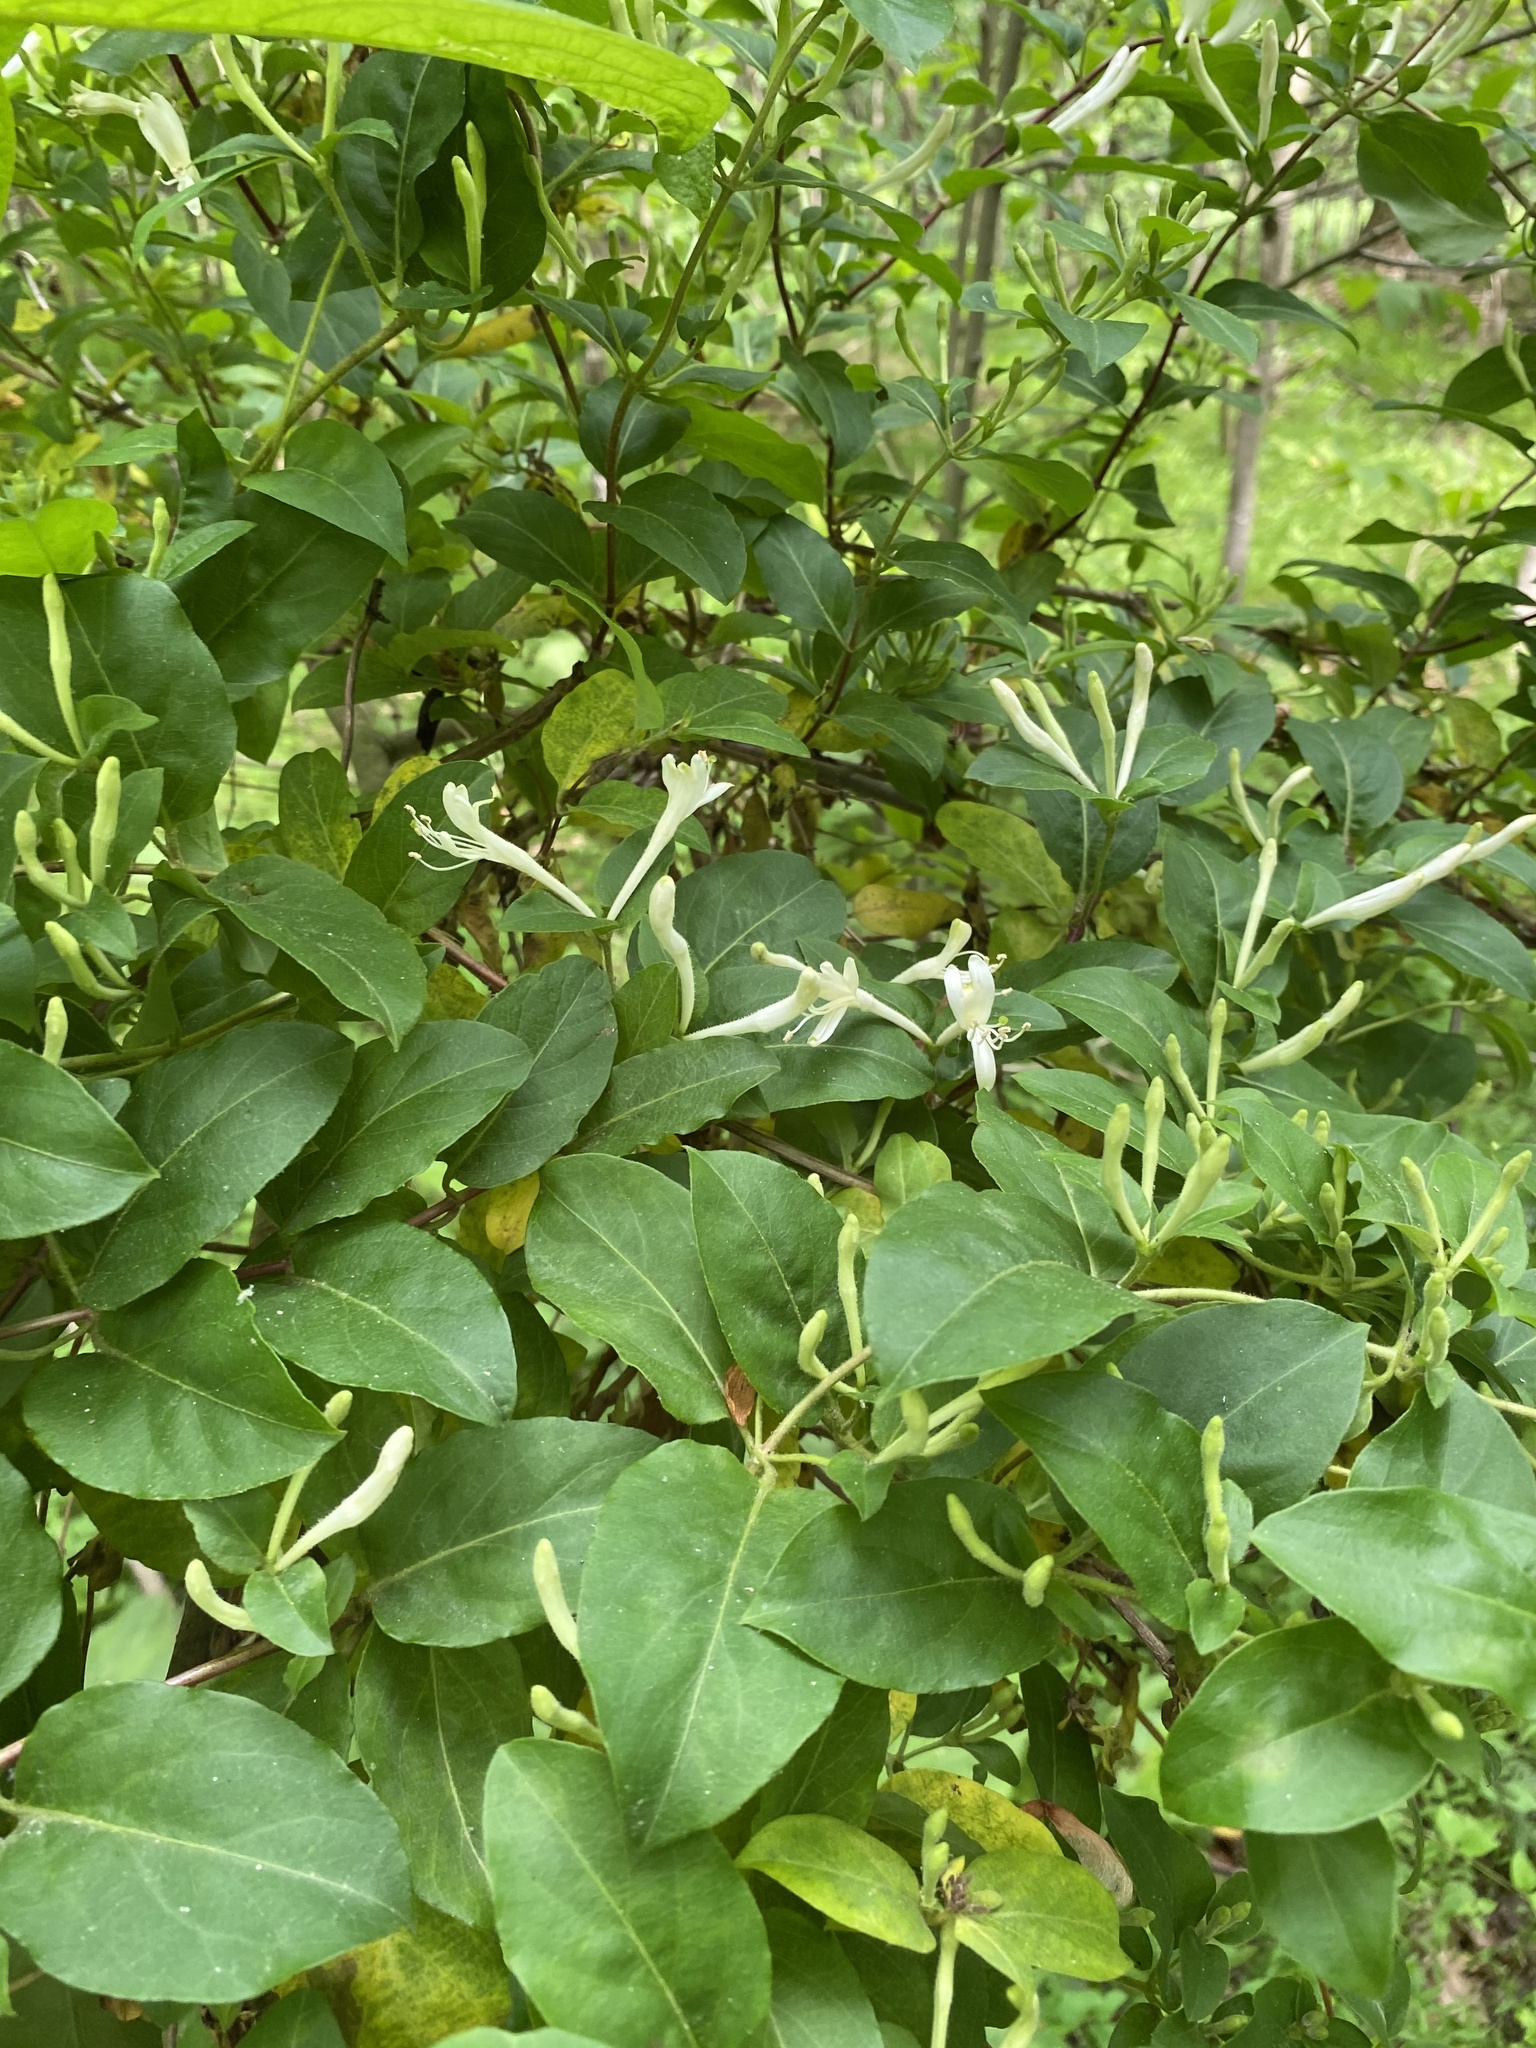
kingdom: Plantae
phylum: Tracheophyta
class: Magnoliopsida
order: Dipsacales
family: Caprifoliaceae
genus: Lonicera
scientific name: Lonicera japonica
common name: Japanese honeysuckle
